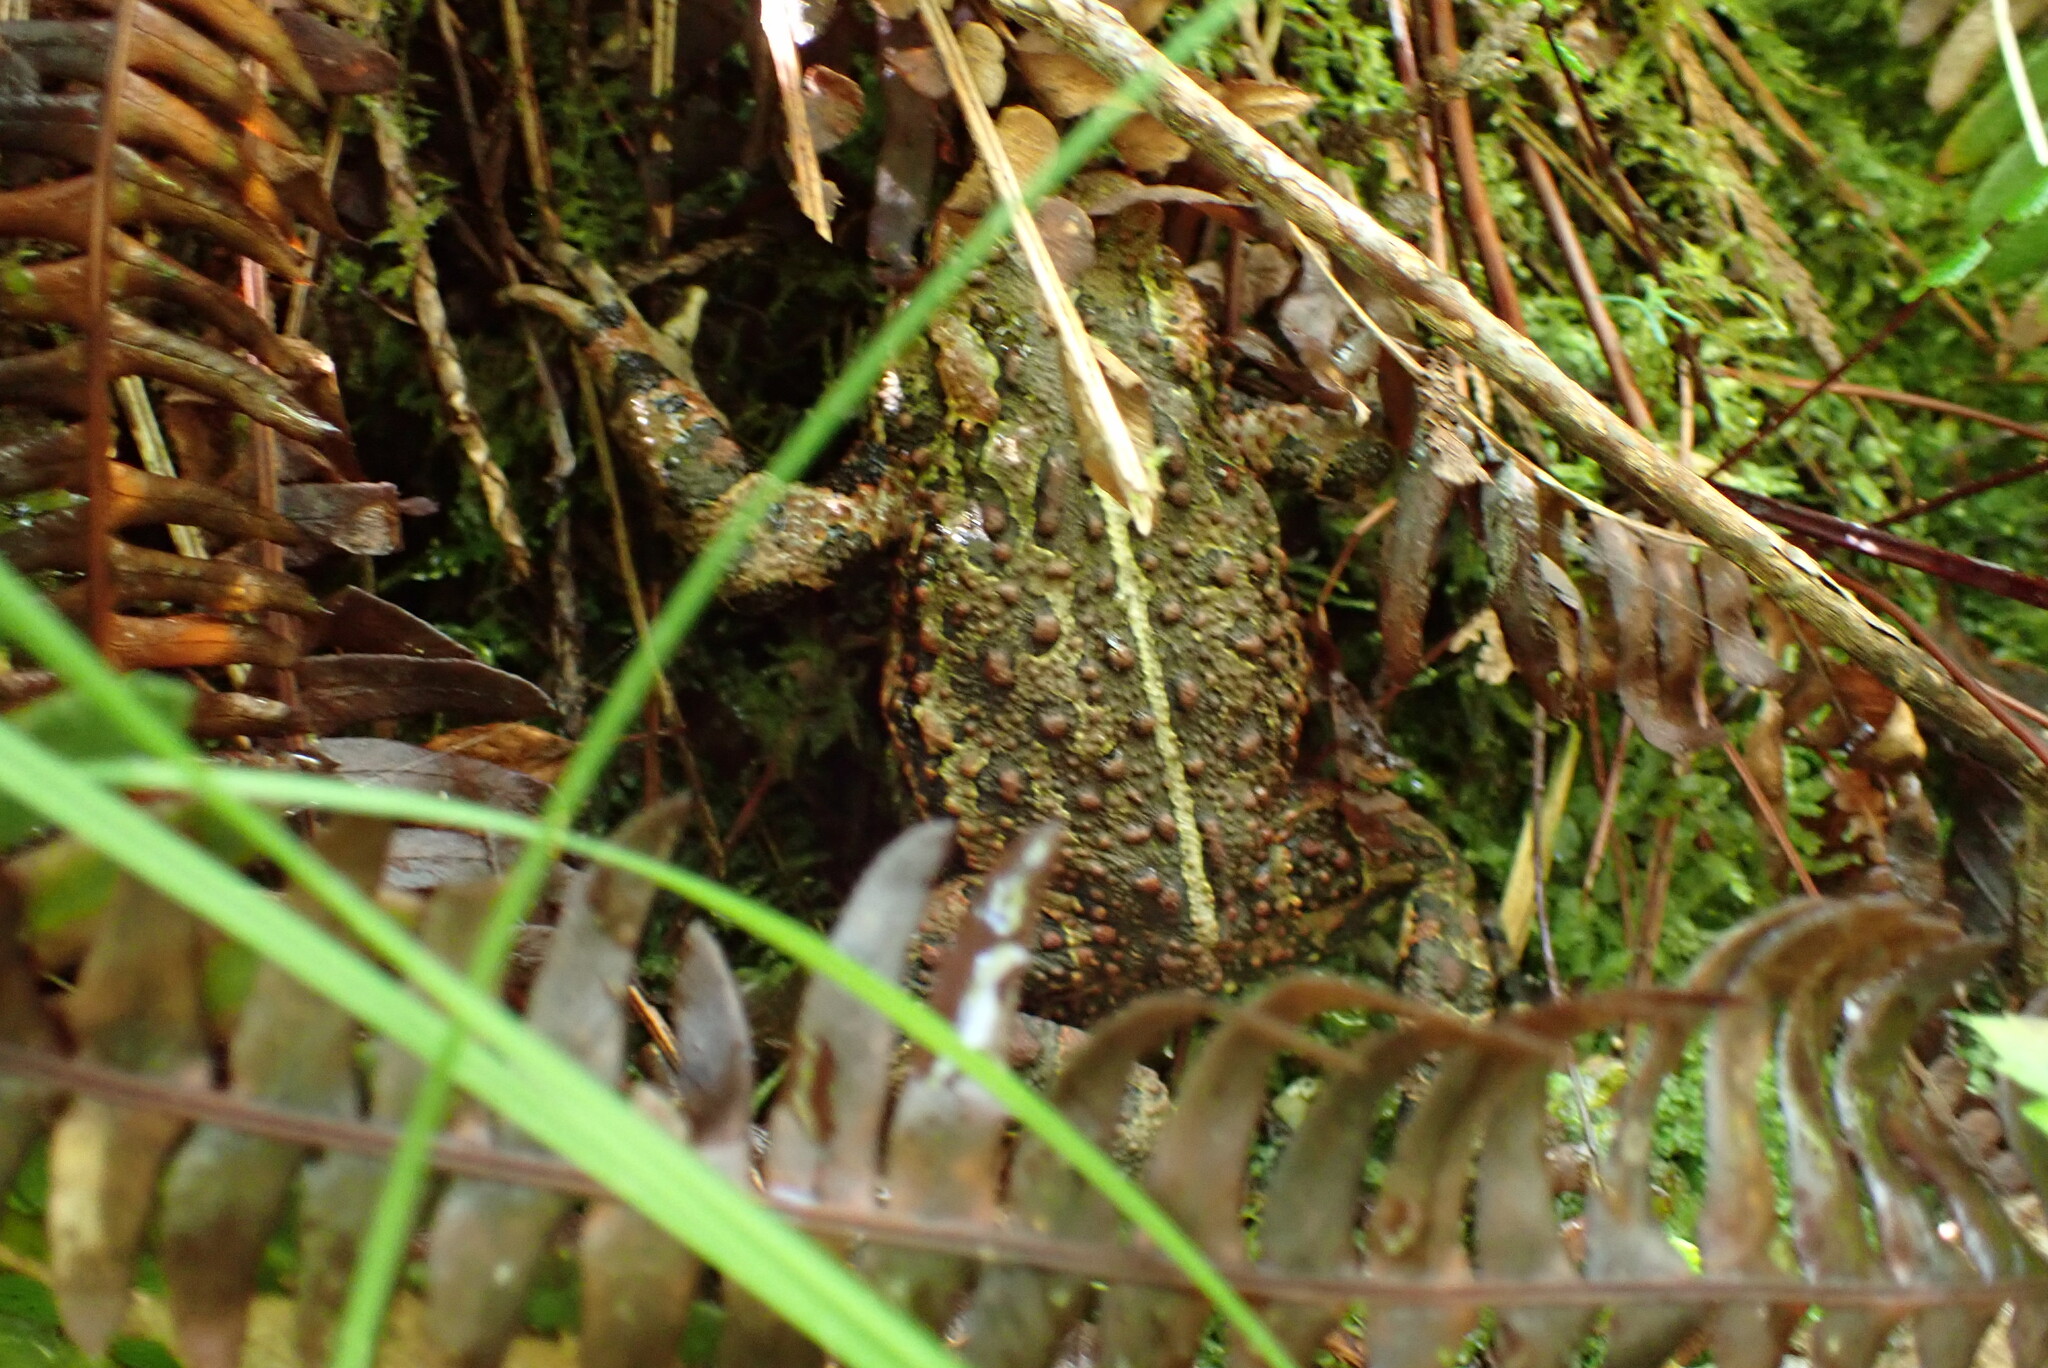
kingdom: Animalia
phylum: Chordata
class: Amphibia
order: Anura
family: Bufonidae
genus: Anaxyrus
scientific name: Anaxyrus boreas
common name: Western toad
